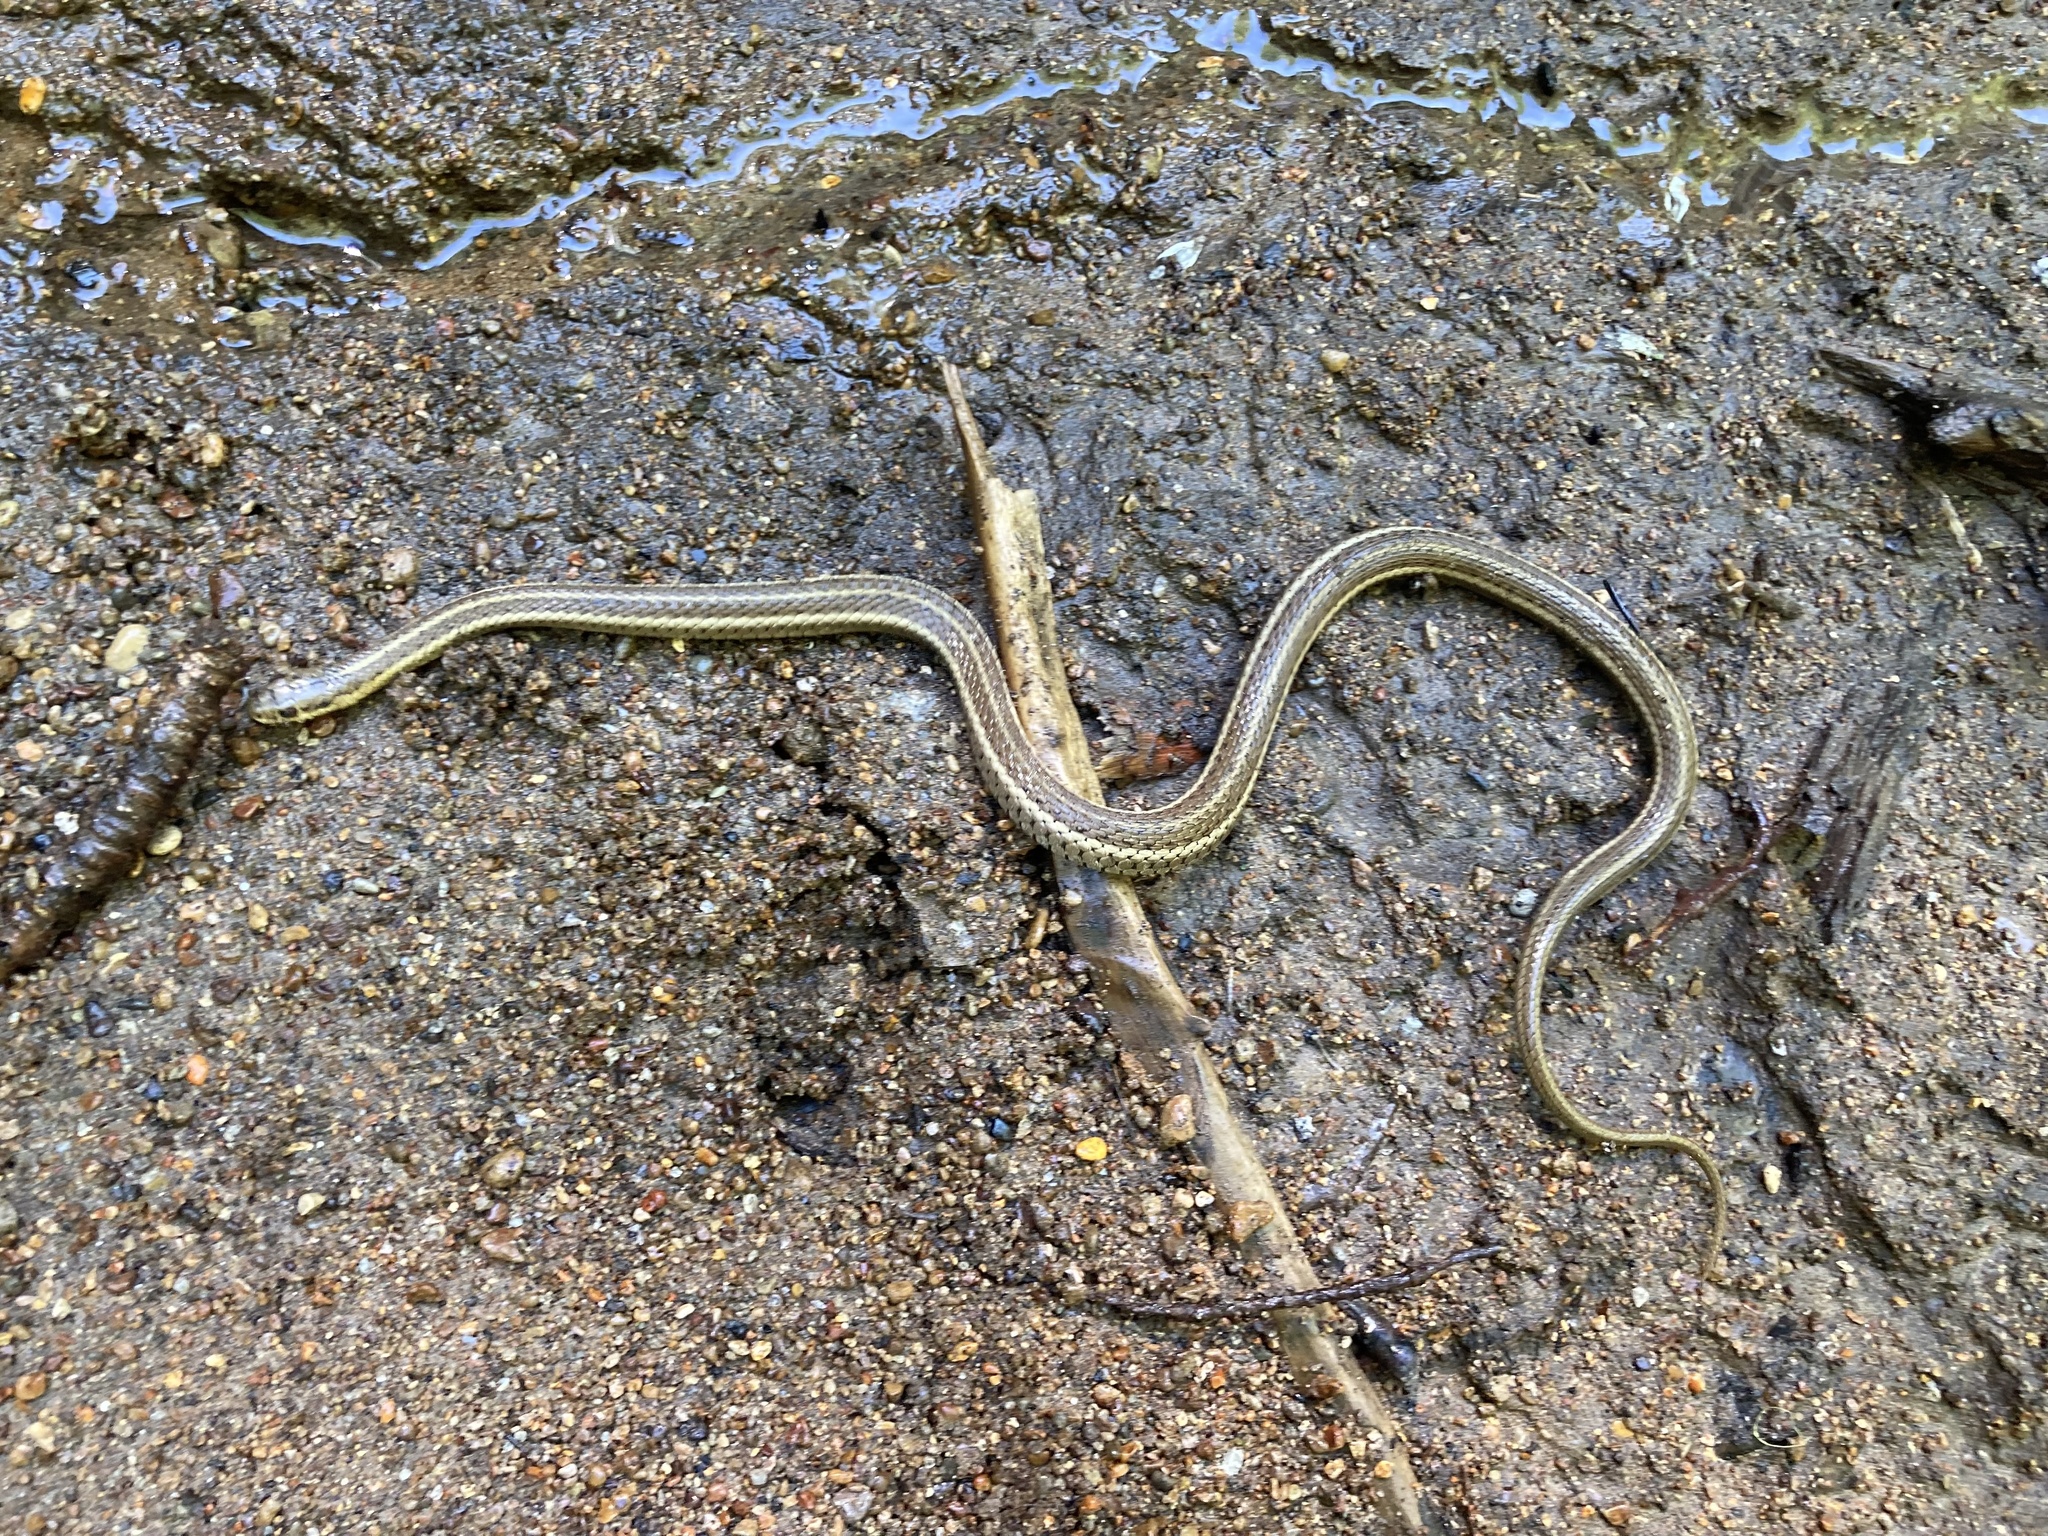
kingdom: Animalia
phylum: Chordata
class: Squamata
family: Colubridae
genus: Thamnophis
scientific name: Thamnophis ordinoides
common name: Northwestern garter snake
